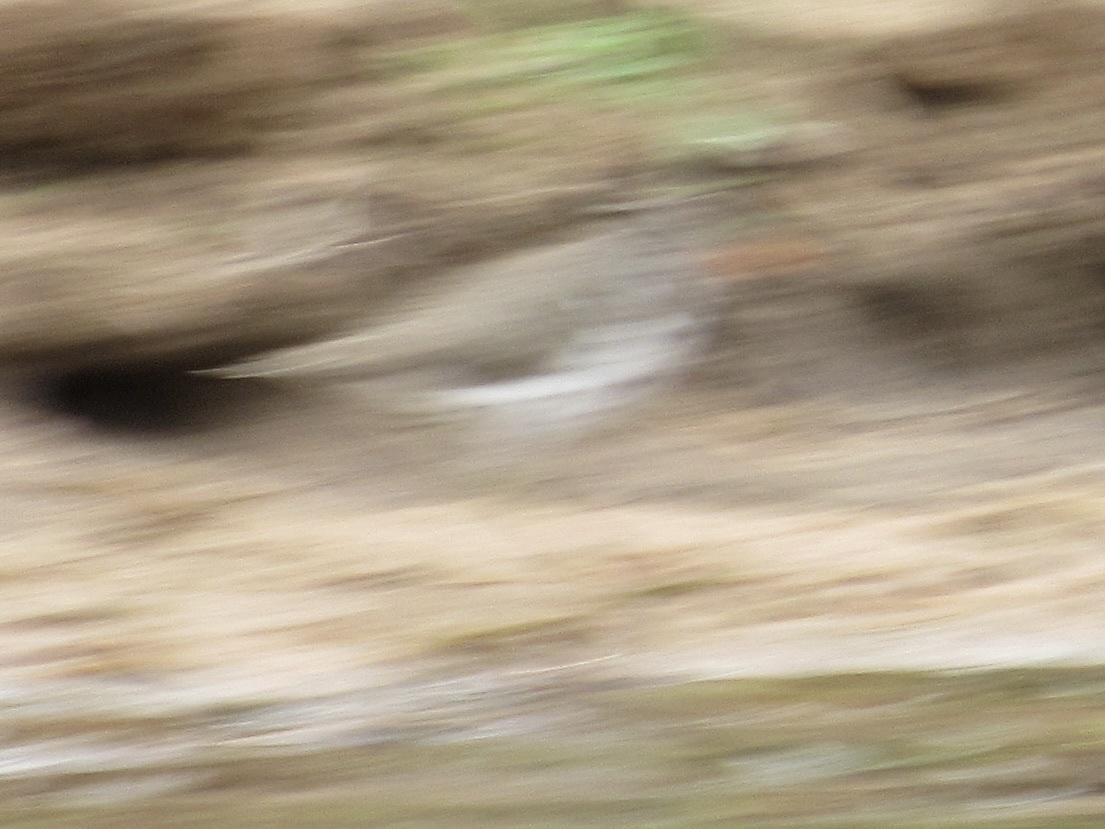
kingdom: Animalia
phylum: Chordata
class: Aves
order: Charadriiformes
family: Scolopacidae
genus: Actitis
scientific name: Actitis macularius
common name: Spotted sandpiper
